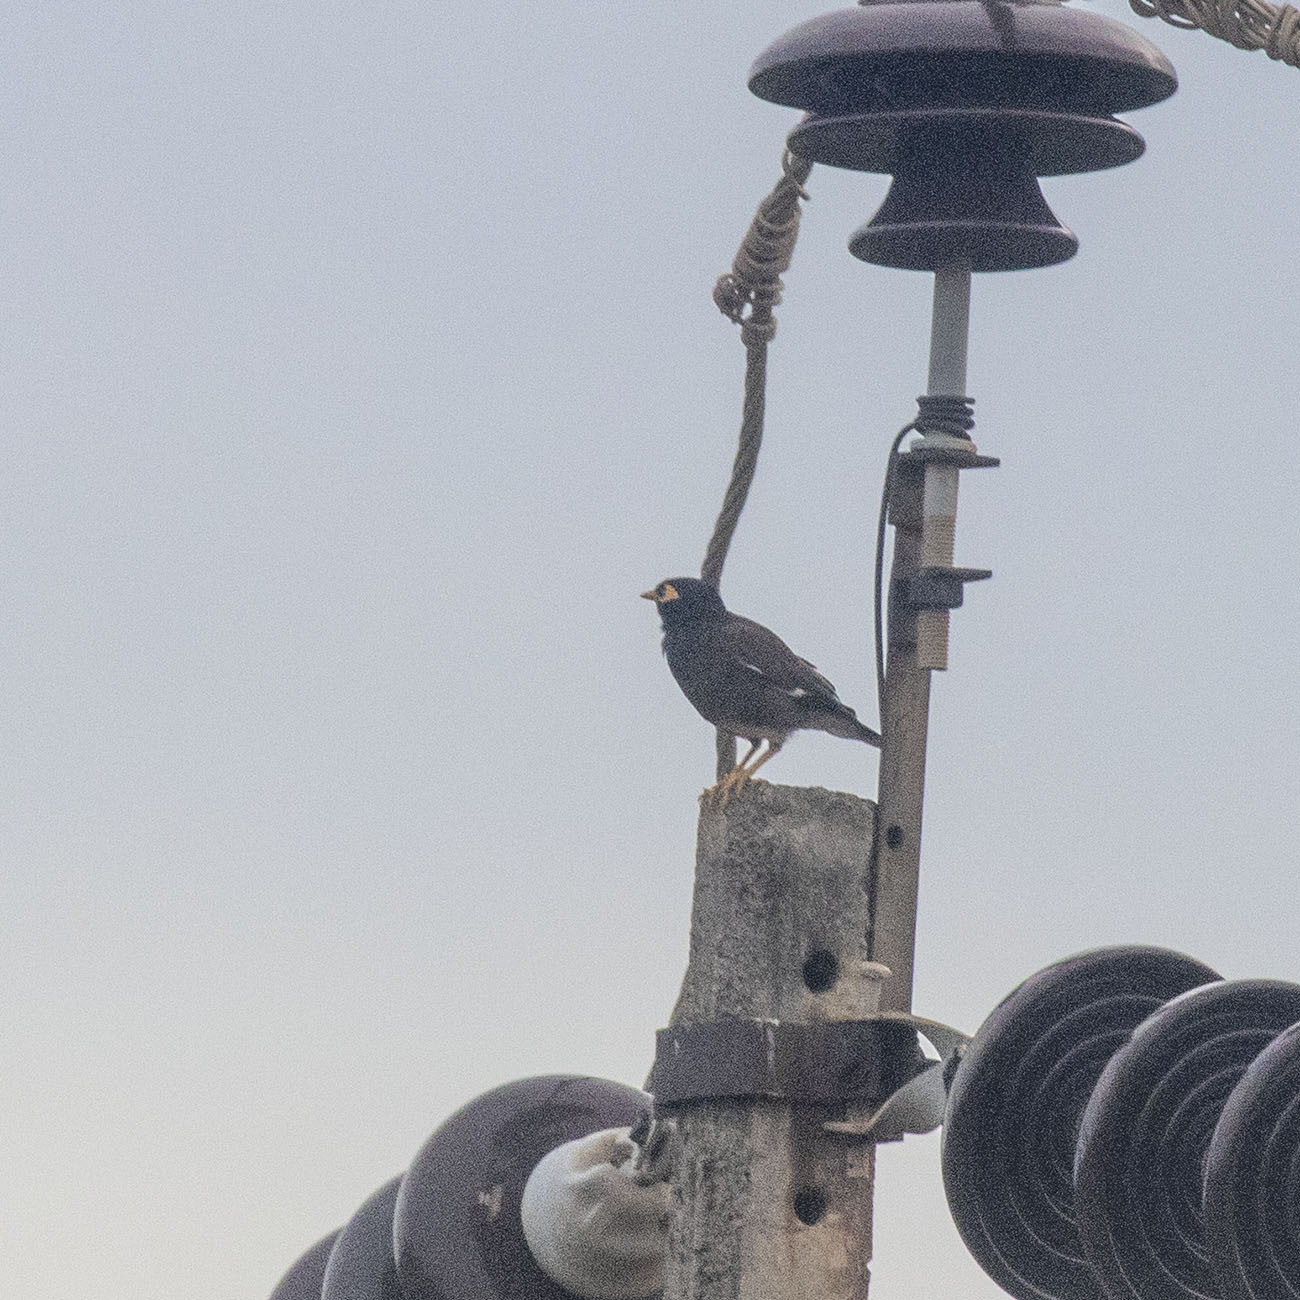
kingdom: Animalia
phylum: Chordata
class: Aves
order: Passeriformes
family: Sturnidae
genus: Acridotheres
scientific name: Acridotheres tristis
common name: Common myna
